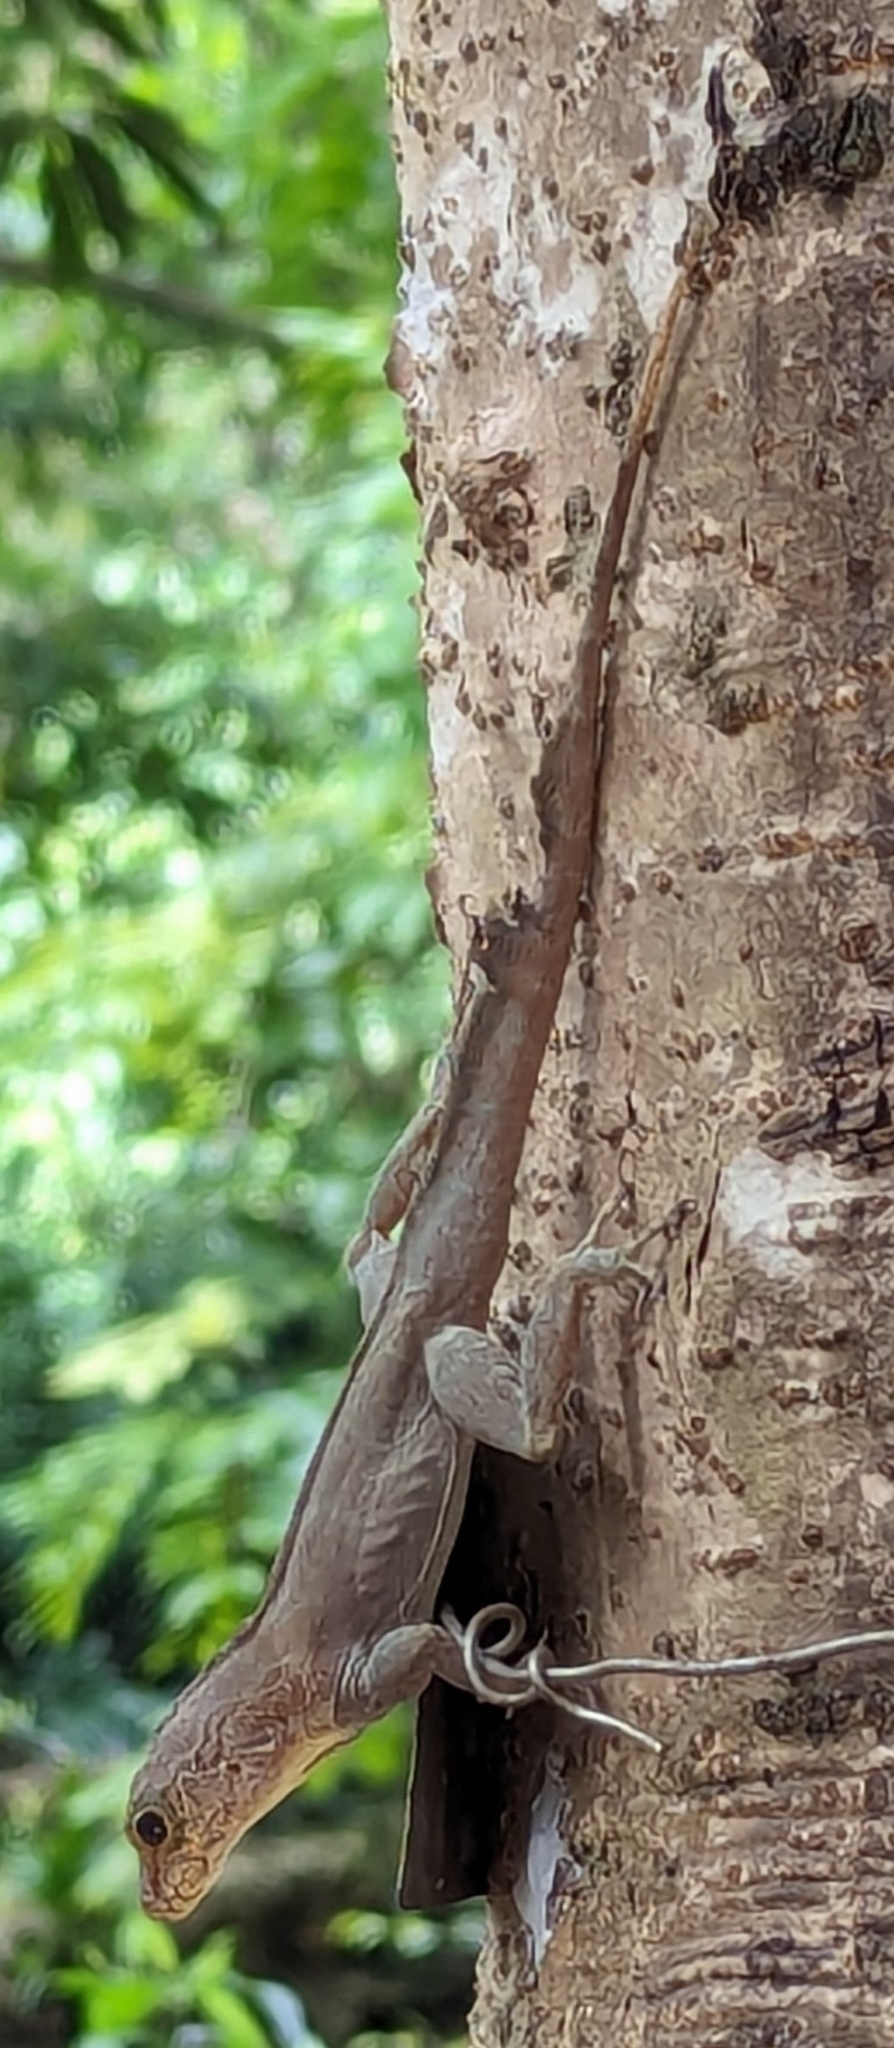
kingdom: Animalia
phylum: Chordata
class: Squamata
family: Dactyloidae
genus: Anolis
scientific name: Anolis cristatellus
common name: Crested anole
